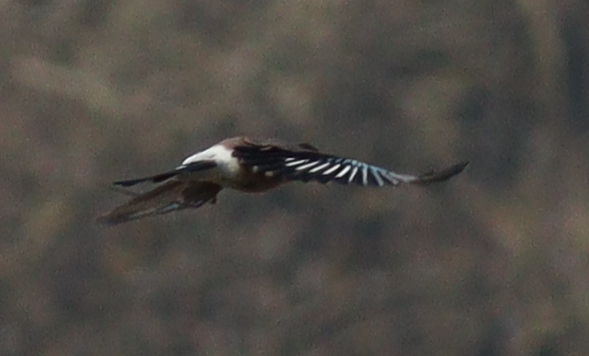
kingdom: Animalia
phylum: Chordata
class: Aves
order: Passeriformes
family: Corvidae
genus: Garrulus
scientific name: Garrulus glandarius
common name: Eurasian jay
